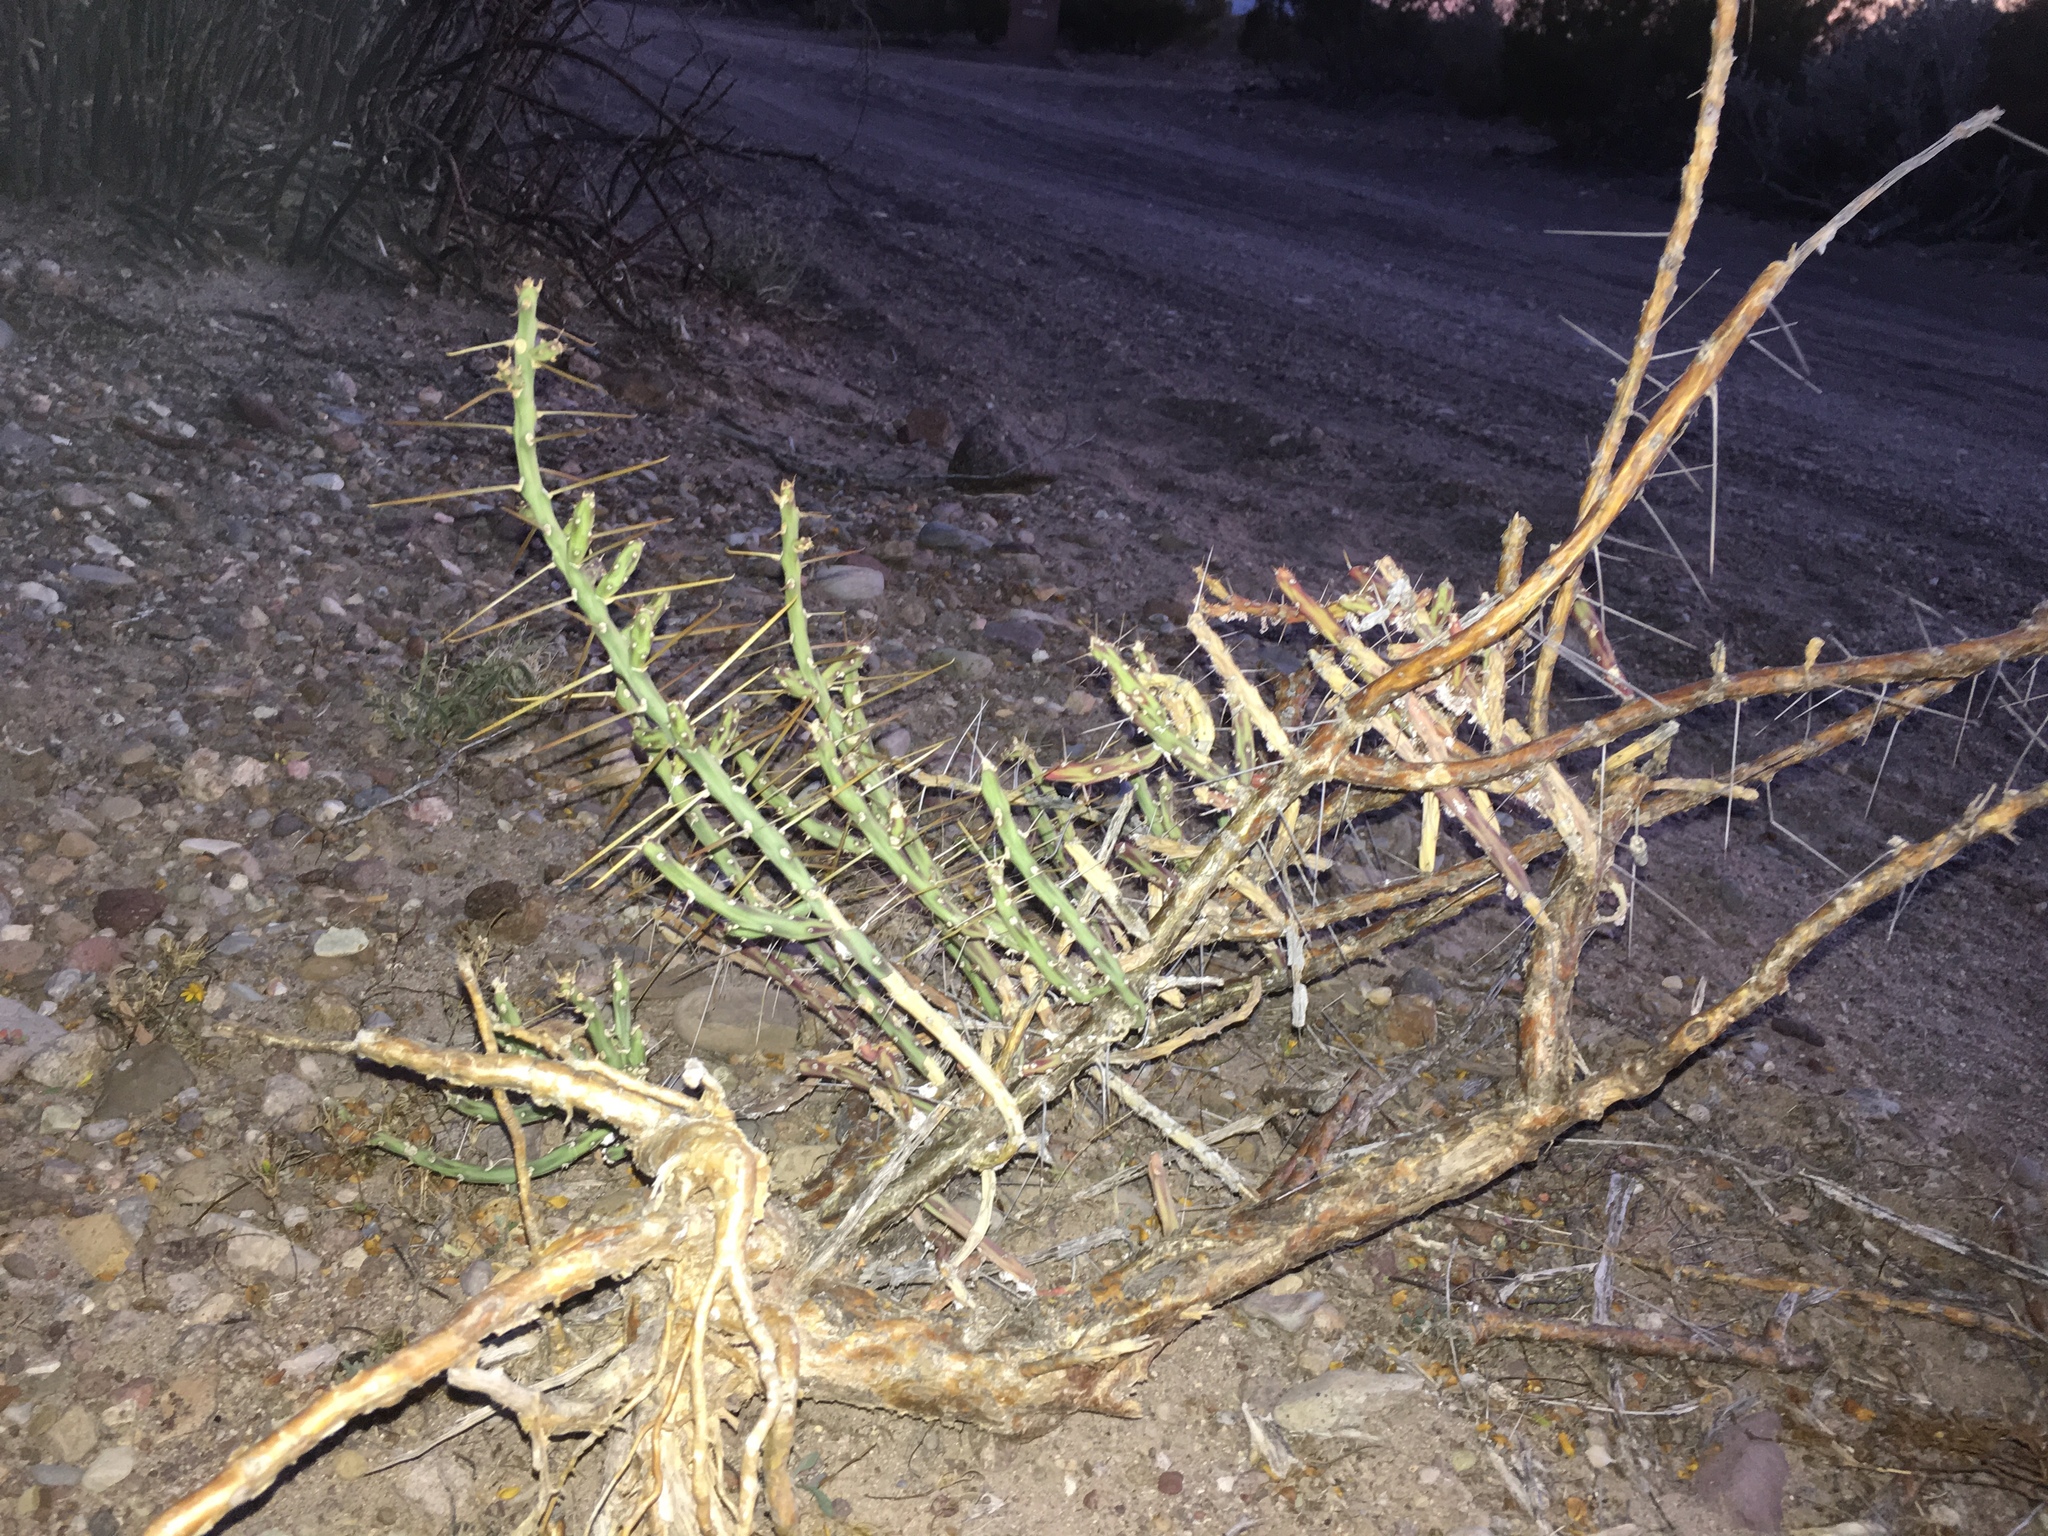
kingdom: Plantae
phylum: Tracheophyta
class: Magnoliopsida
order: Caryophyllales
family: Cactaceae
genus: Cylindropuntia
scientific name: Cylindropuntia leptocaulis
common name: Christmas cactus
